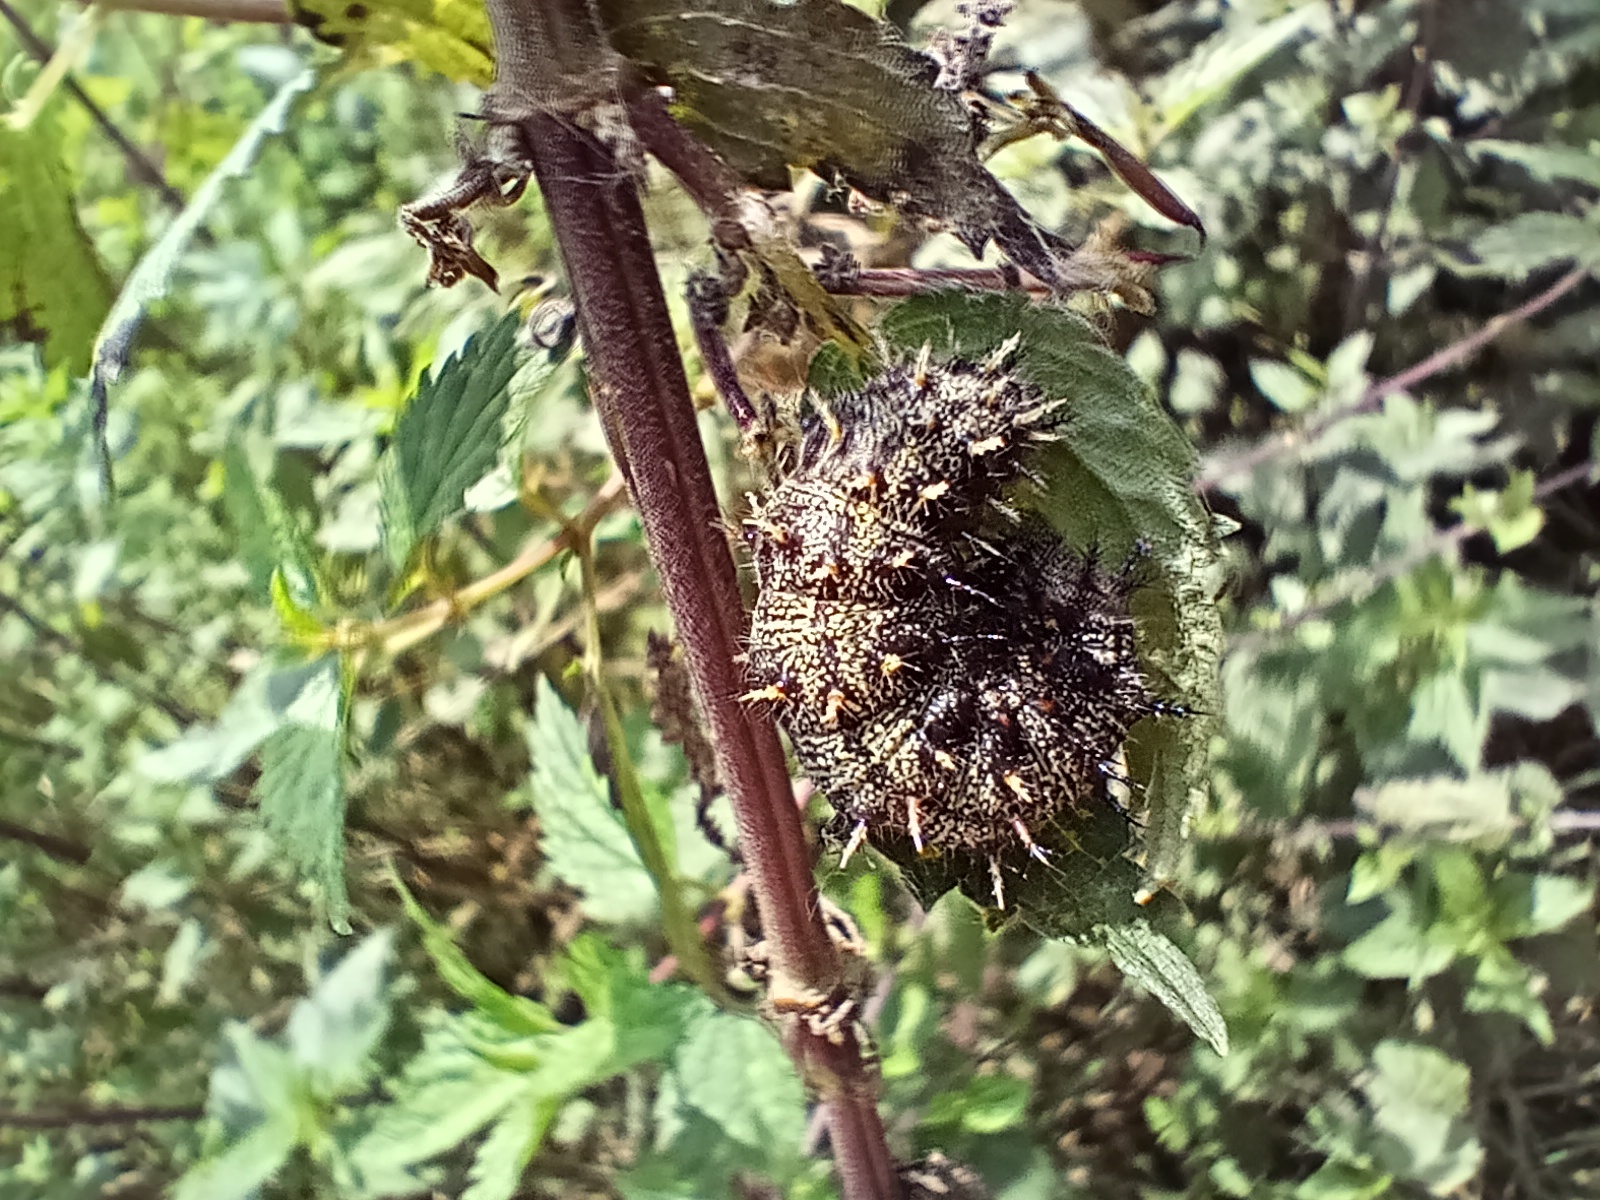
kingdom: Animalia
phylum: Arthropoda
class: Insecta
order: Lepidoptera
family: Nymphalidae
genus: Vanessa
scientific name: Vanessa atalanta
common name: Red admiral
